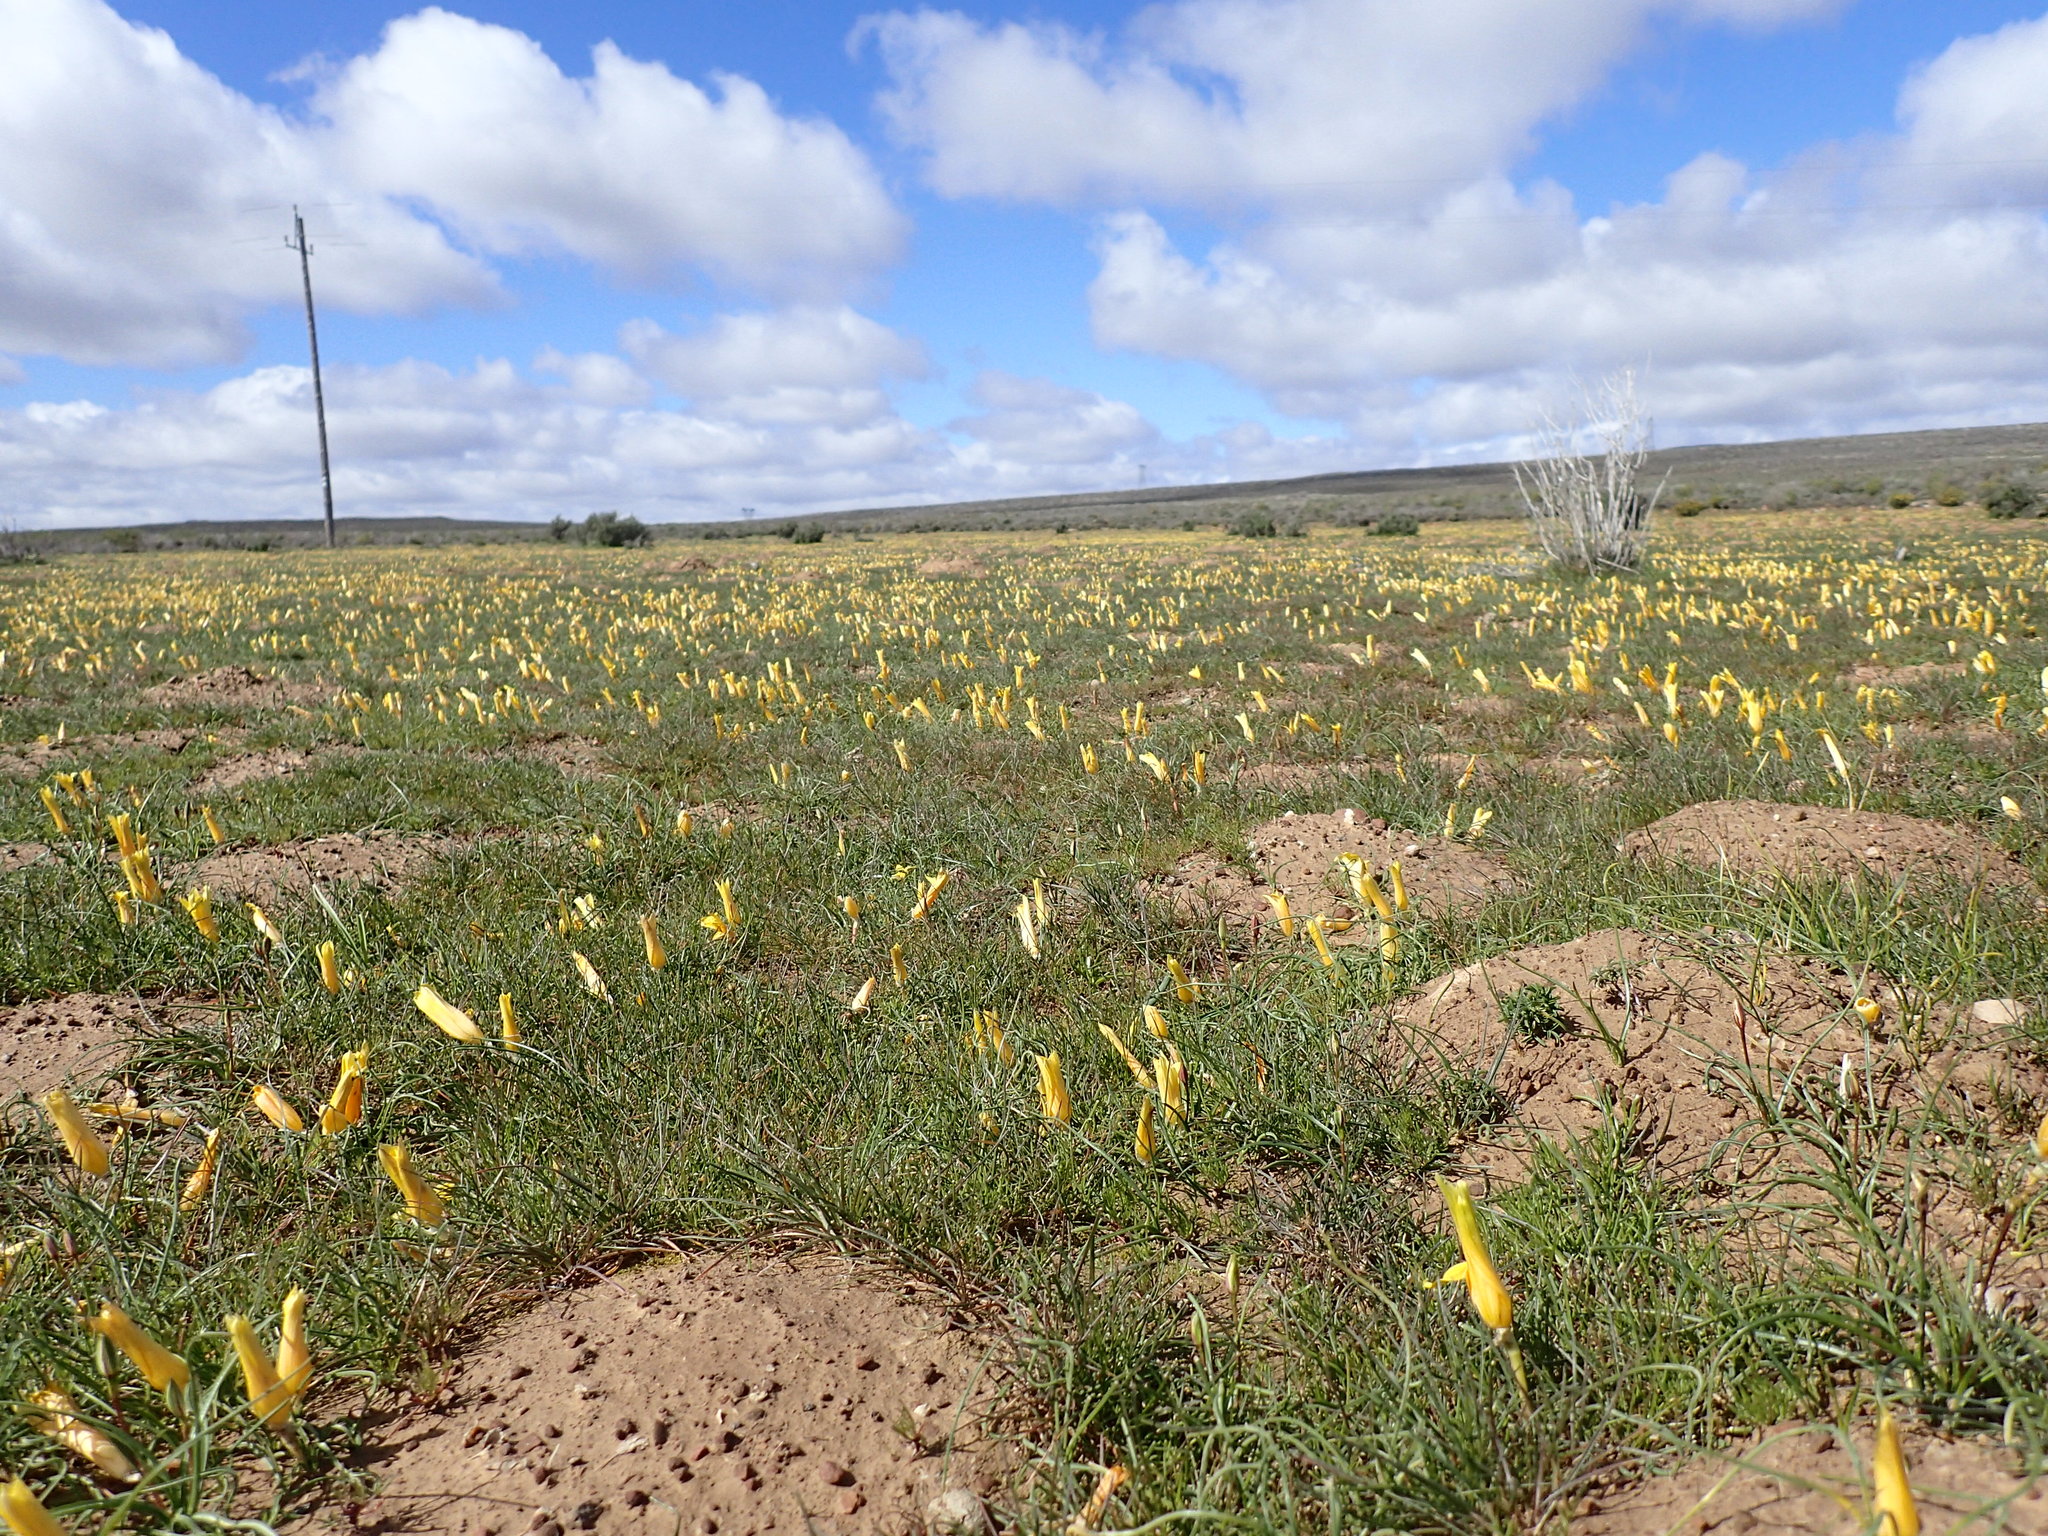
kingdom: Plantae
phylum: Tracheophyta
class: Liliopsida
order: Asparagales
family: Iridaceae
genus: Romulea
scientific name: Romulea tortuosa
